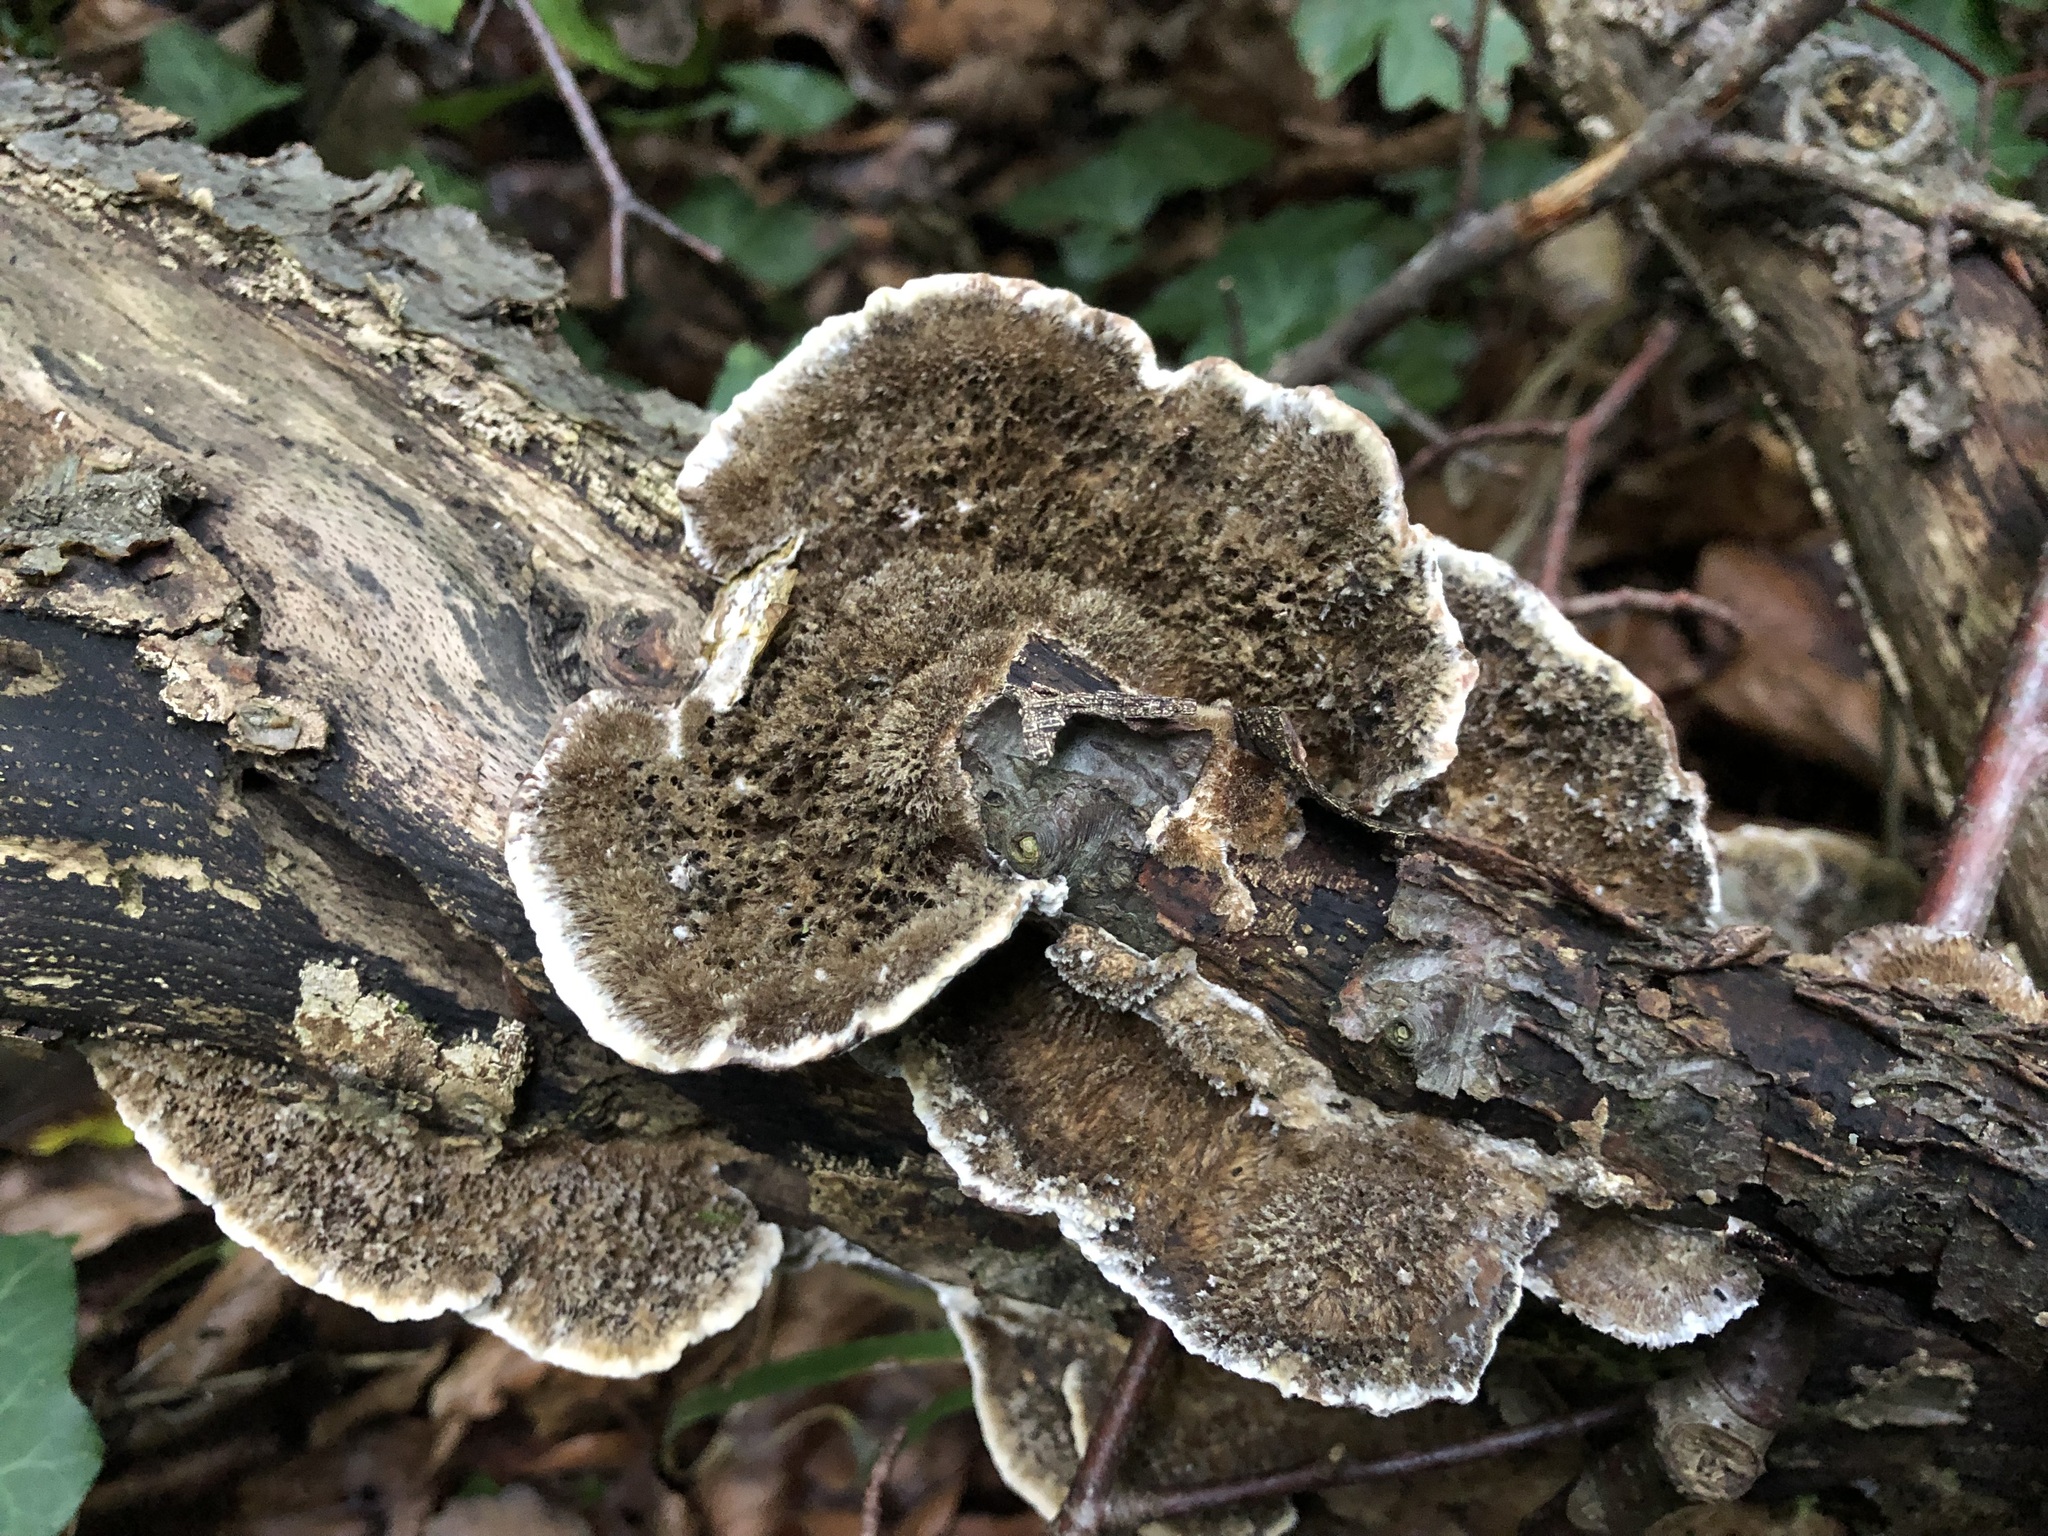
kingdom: Fungi
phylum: Basidiomycota
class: Agaricomycetes
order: Polyporales
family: Polyporaceae
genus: Coriolopsis
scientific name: Coriolopsis gallica
